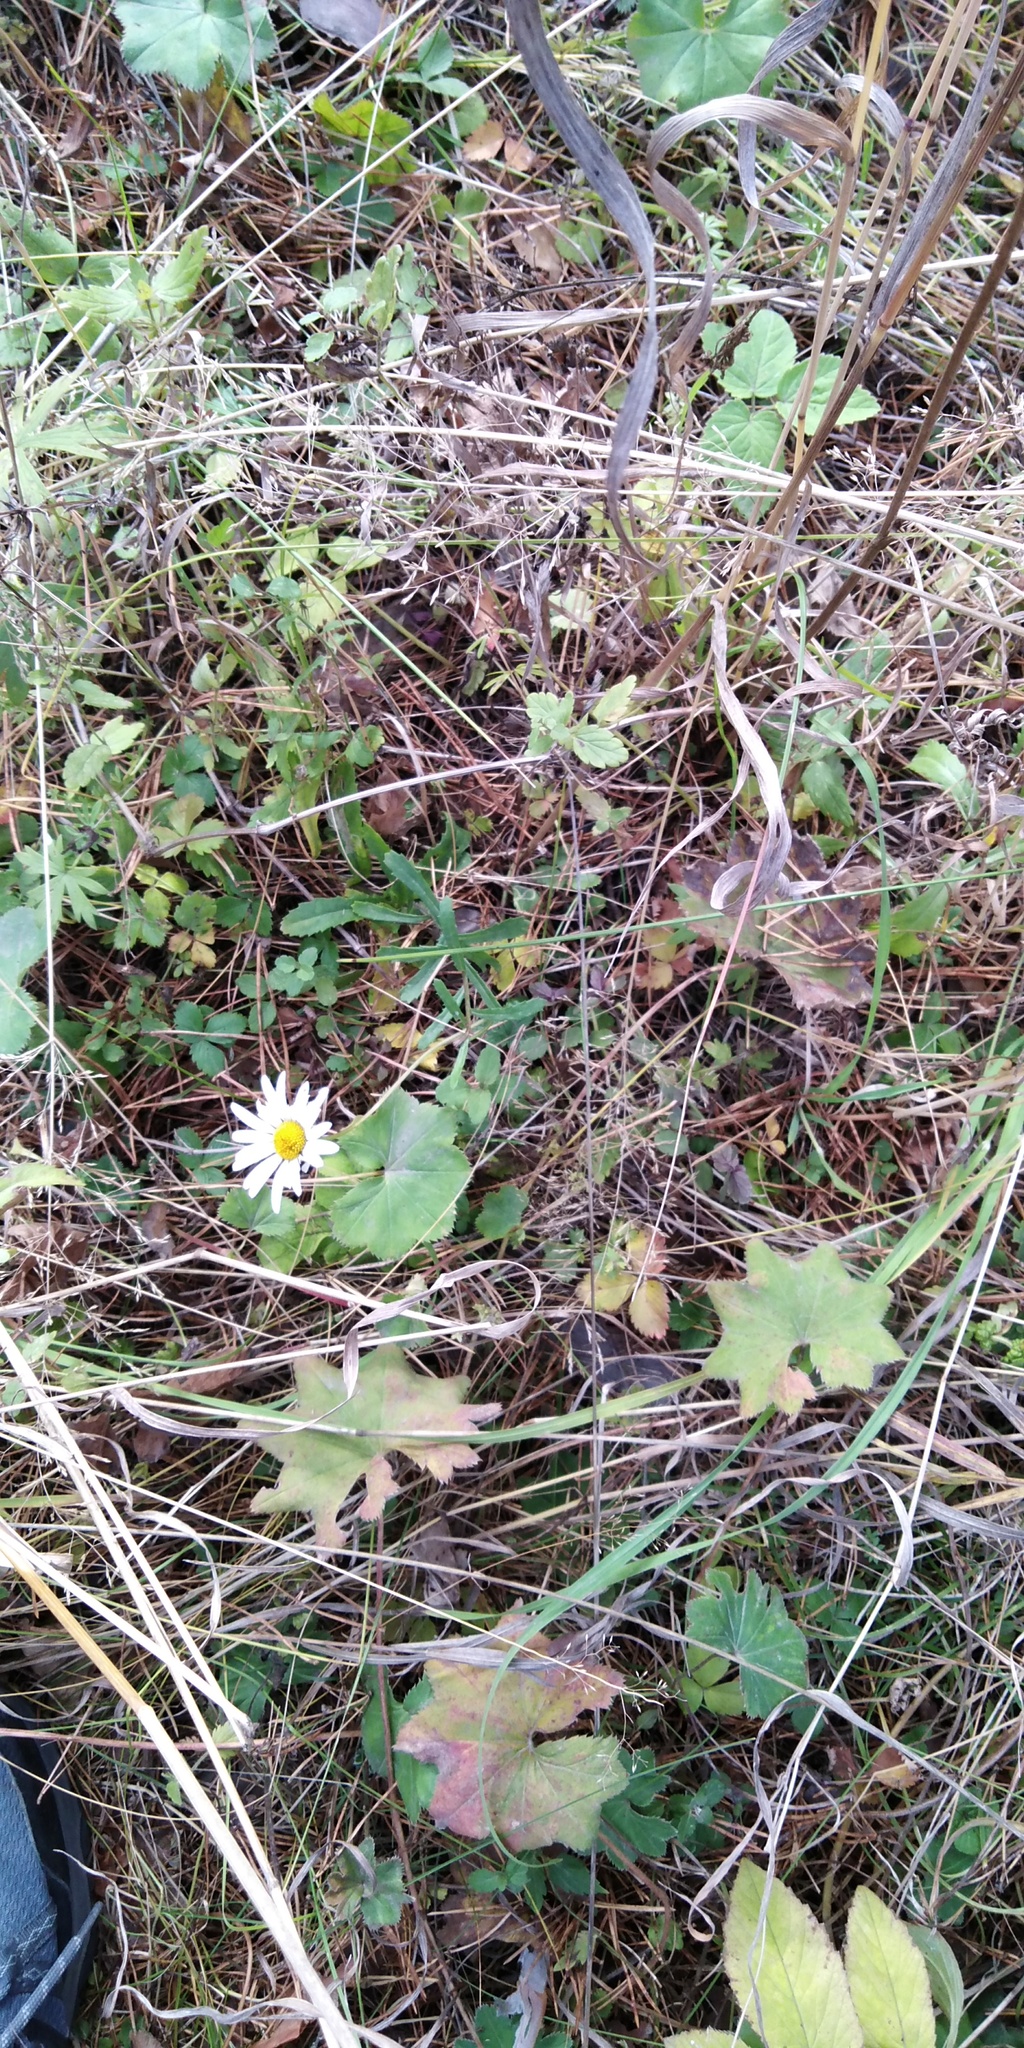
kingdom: Plantae
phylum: Tracheophyta
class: Magnoliopsida
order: Asterales
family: Asteraceae
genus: Leucanthemum
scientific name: Leucanthemum vulgare
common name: Oxeye daisy
